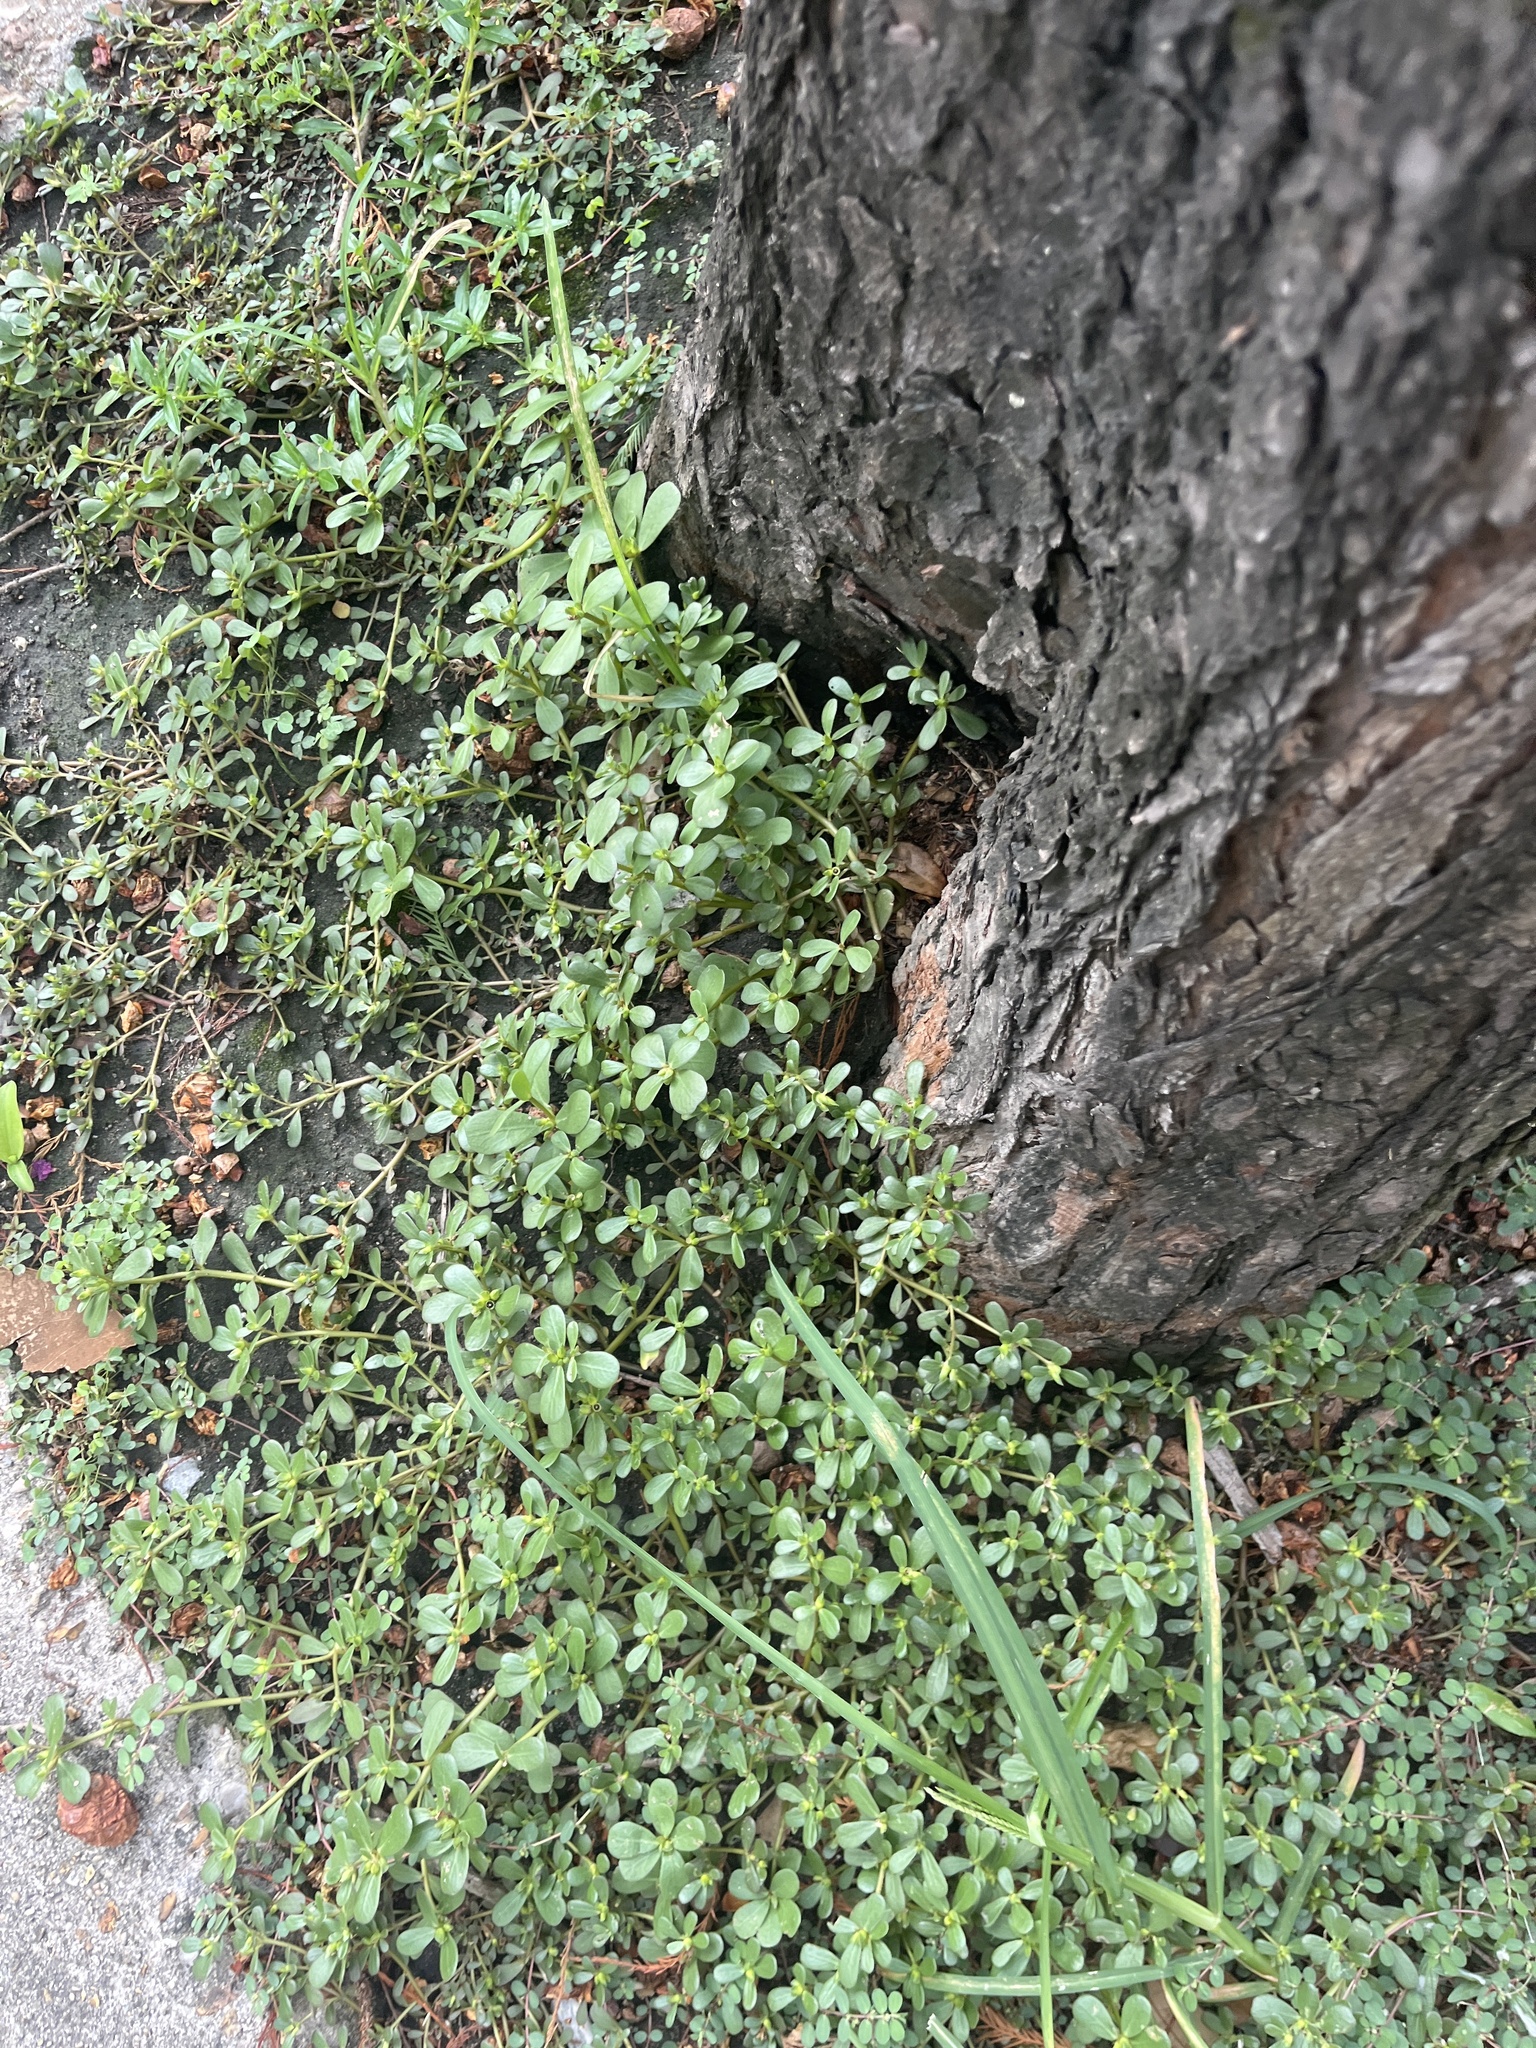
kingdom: Plantae
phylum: Tracheophyta
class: Magnoliopsida
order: Caryophyllales
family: Portulacaceae
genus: Portulaca
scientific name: Portulaca oleracea
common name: Common purslane
